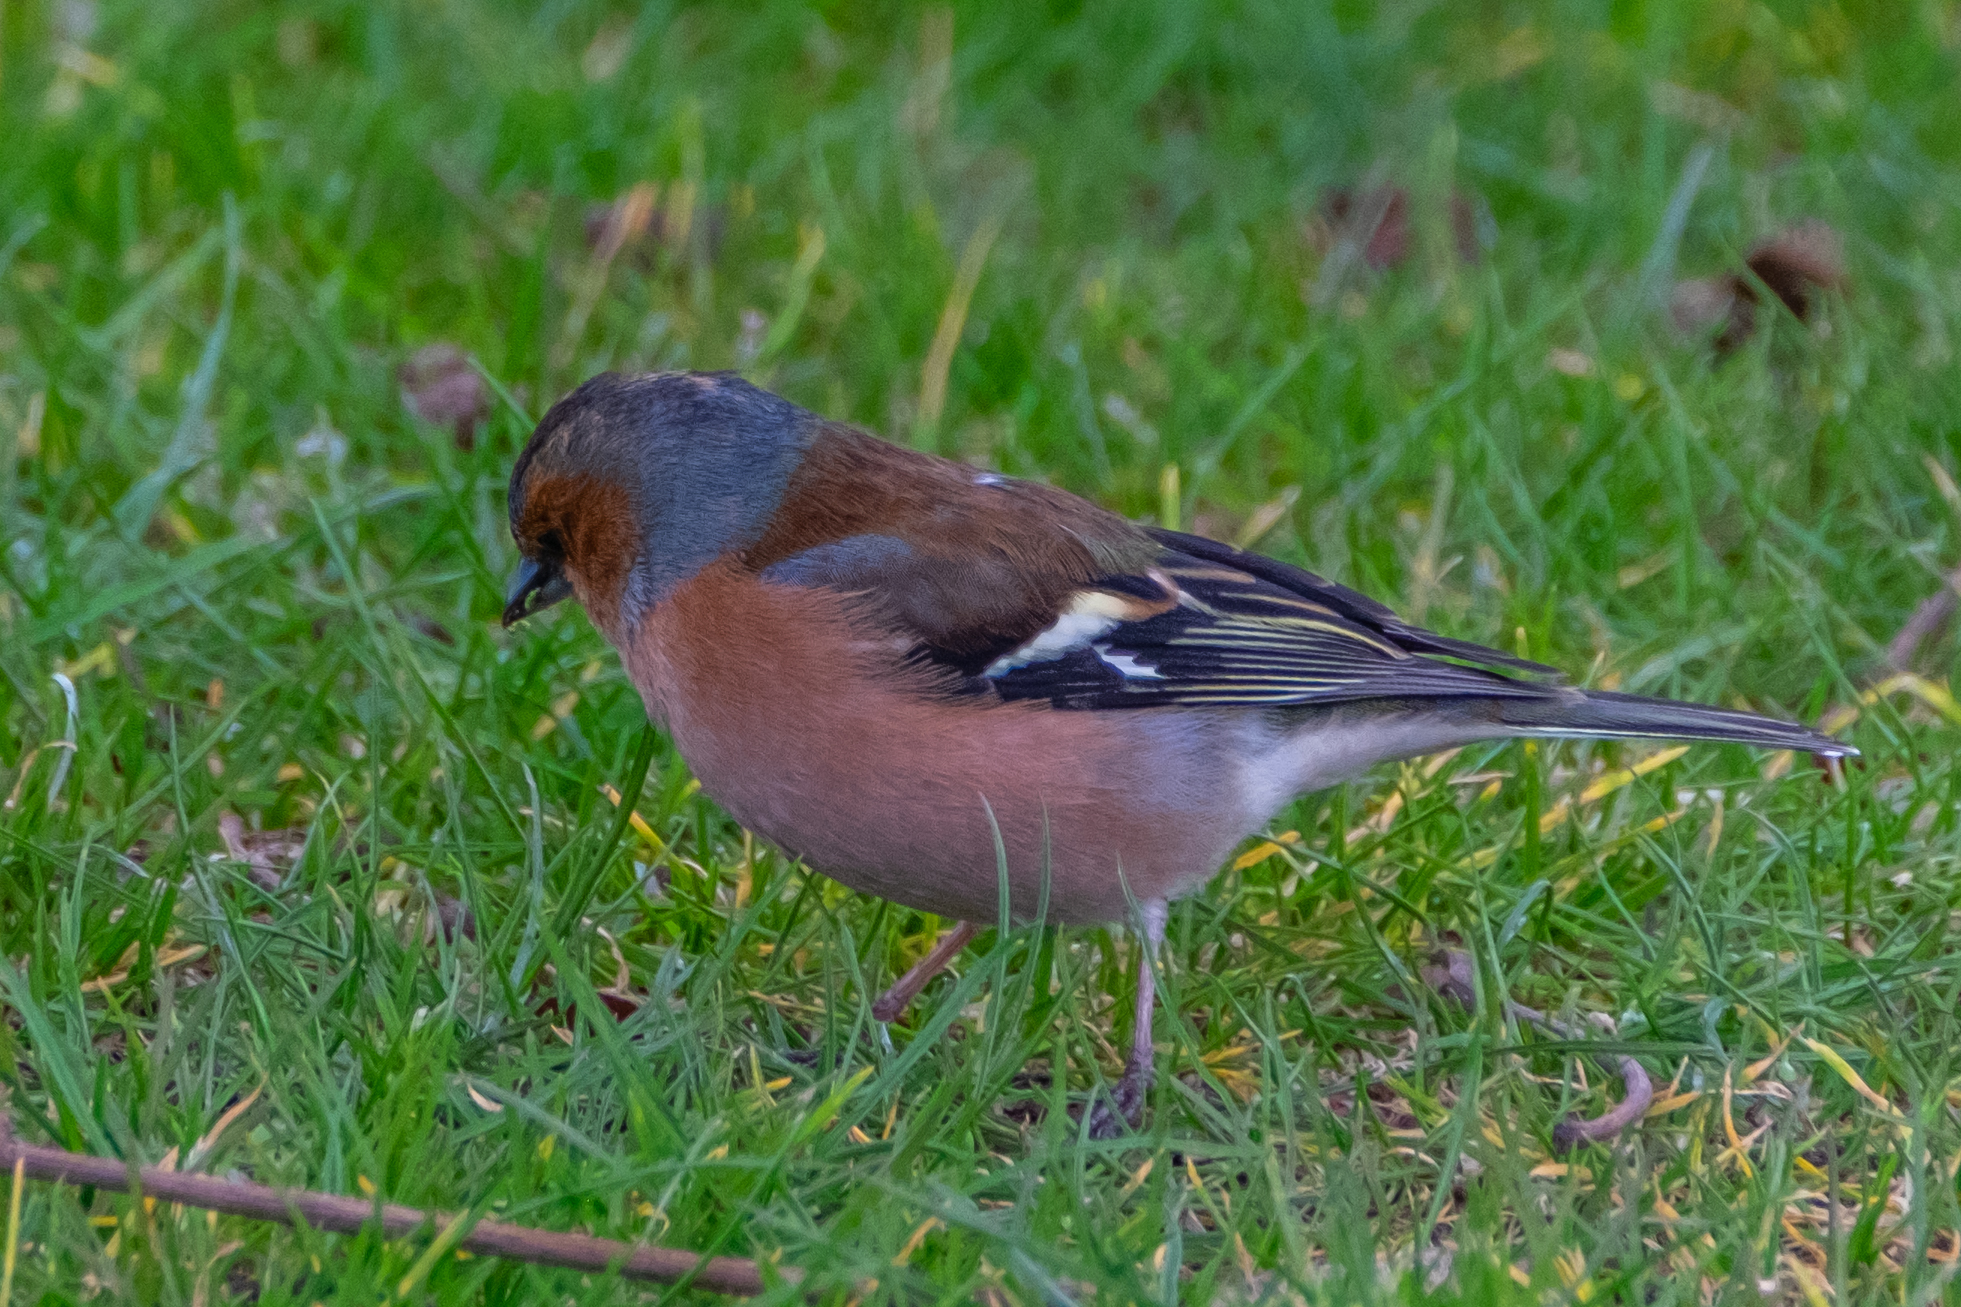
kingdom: Animalia
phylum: Chordata
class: Aves
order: Passeriformes
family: Fringillidae
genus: Fringilla
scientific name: Fringilla coelebs
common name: Common chaffinch
